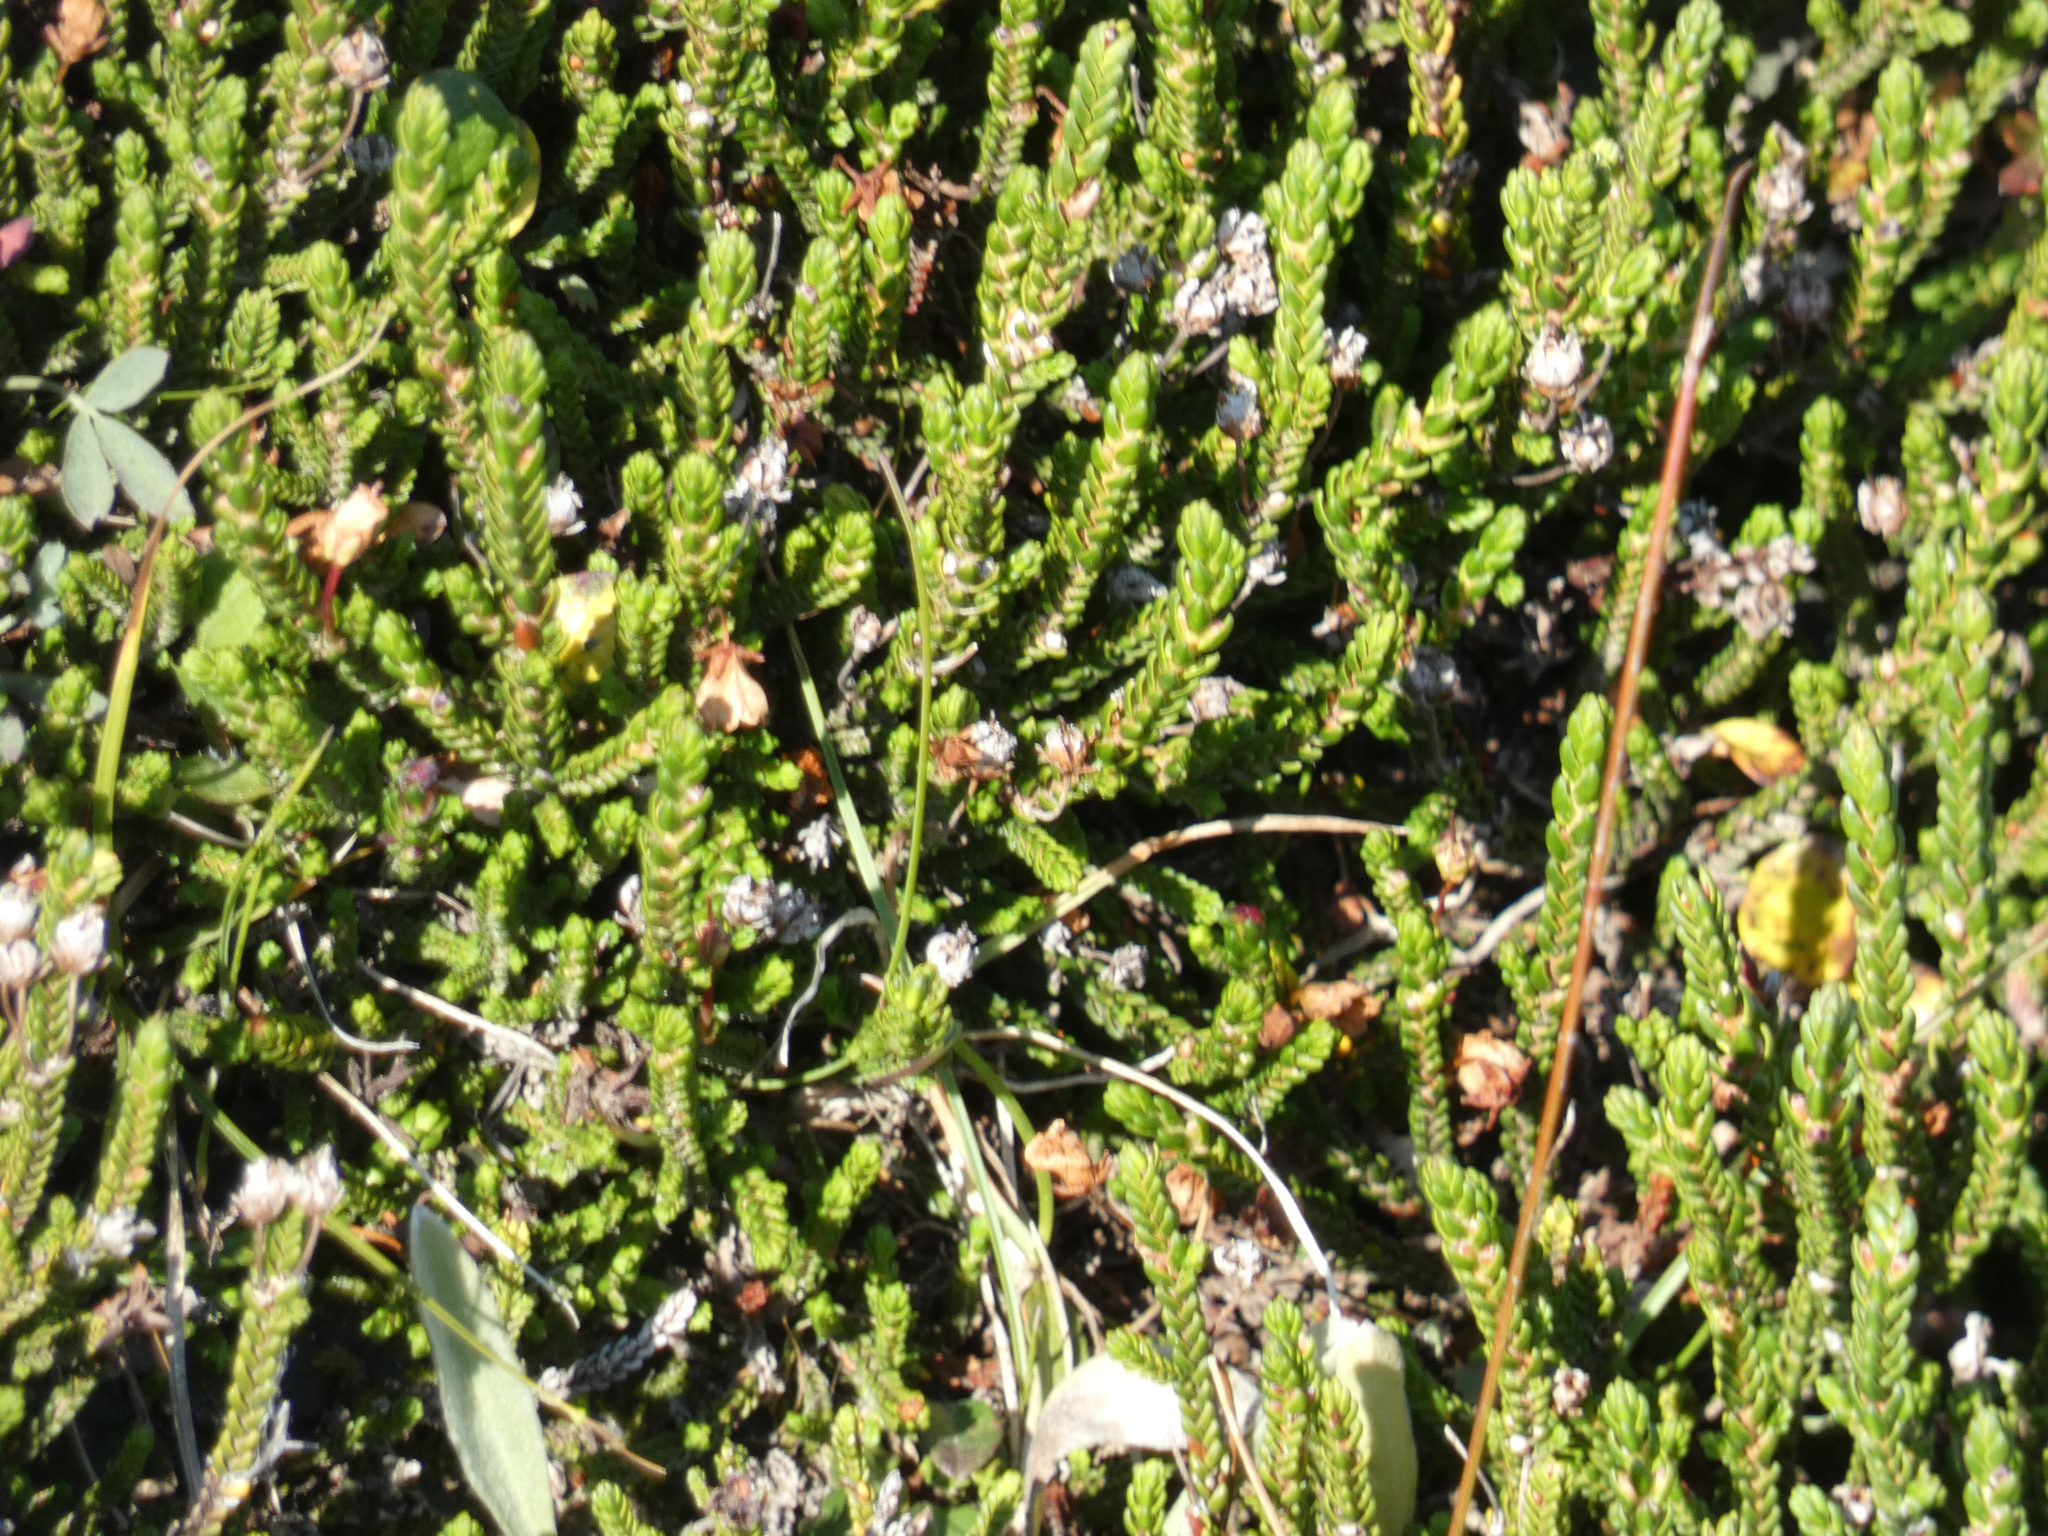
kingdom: Plantae
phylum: Tracheophyta
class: Magnoliopsida
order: Ericales
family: Ericaceae
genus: Cassiope
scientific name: Cassiope mertensiana
